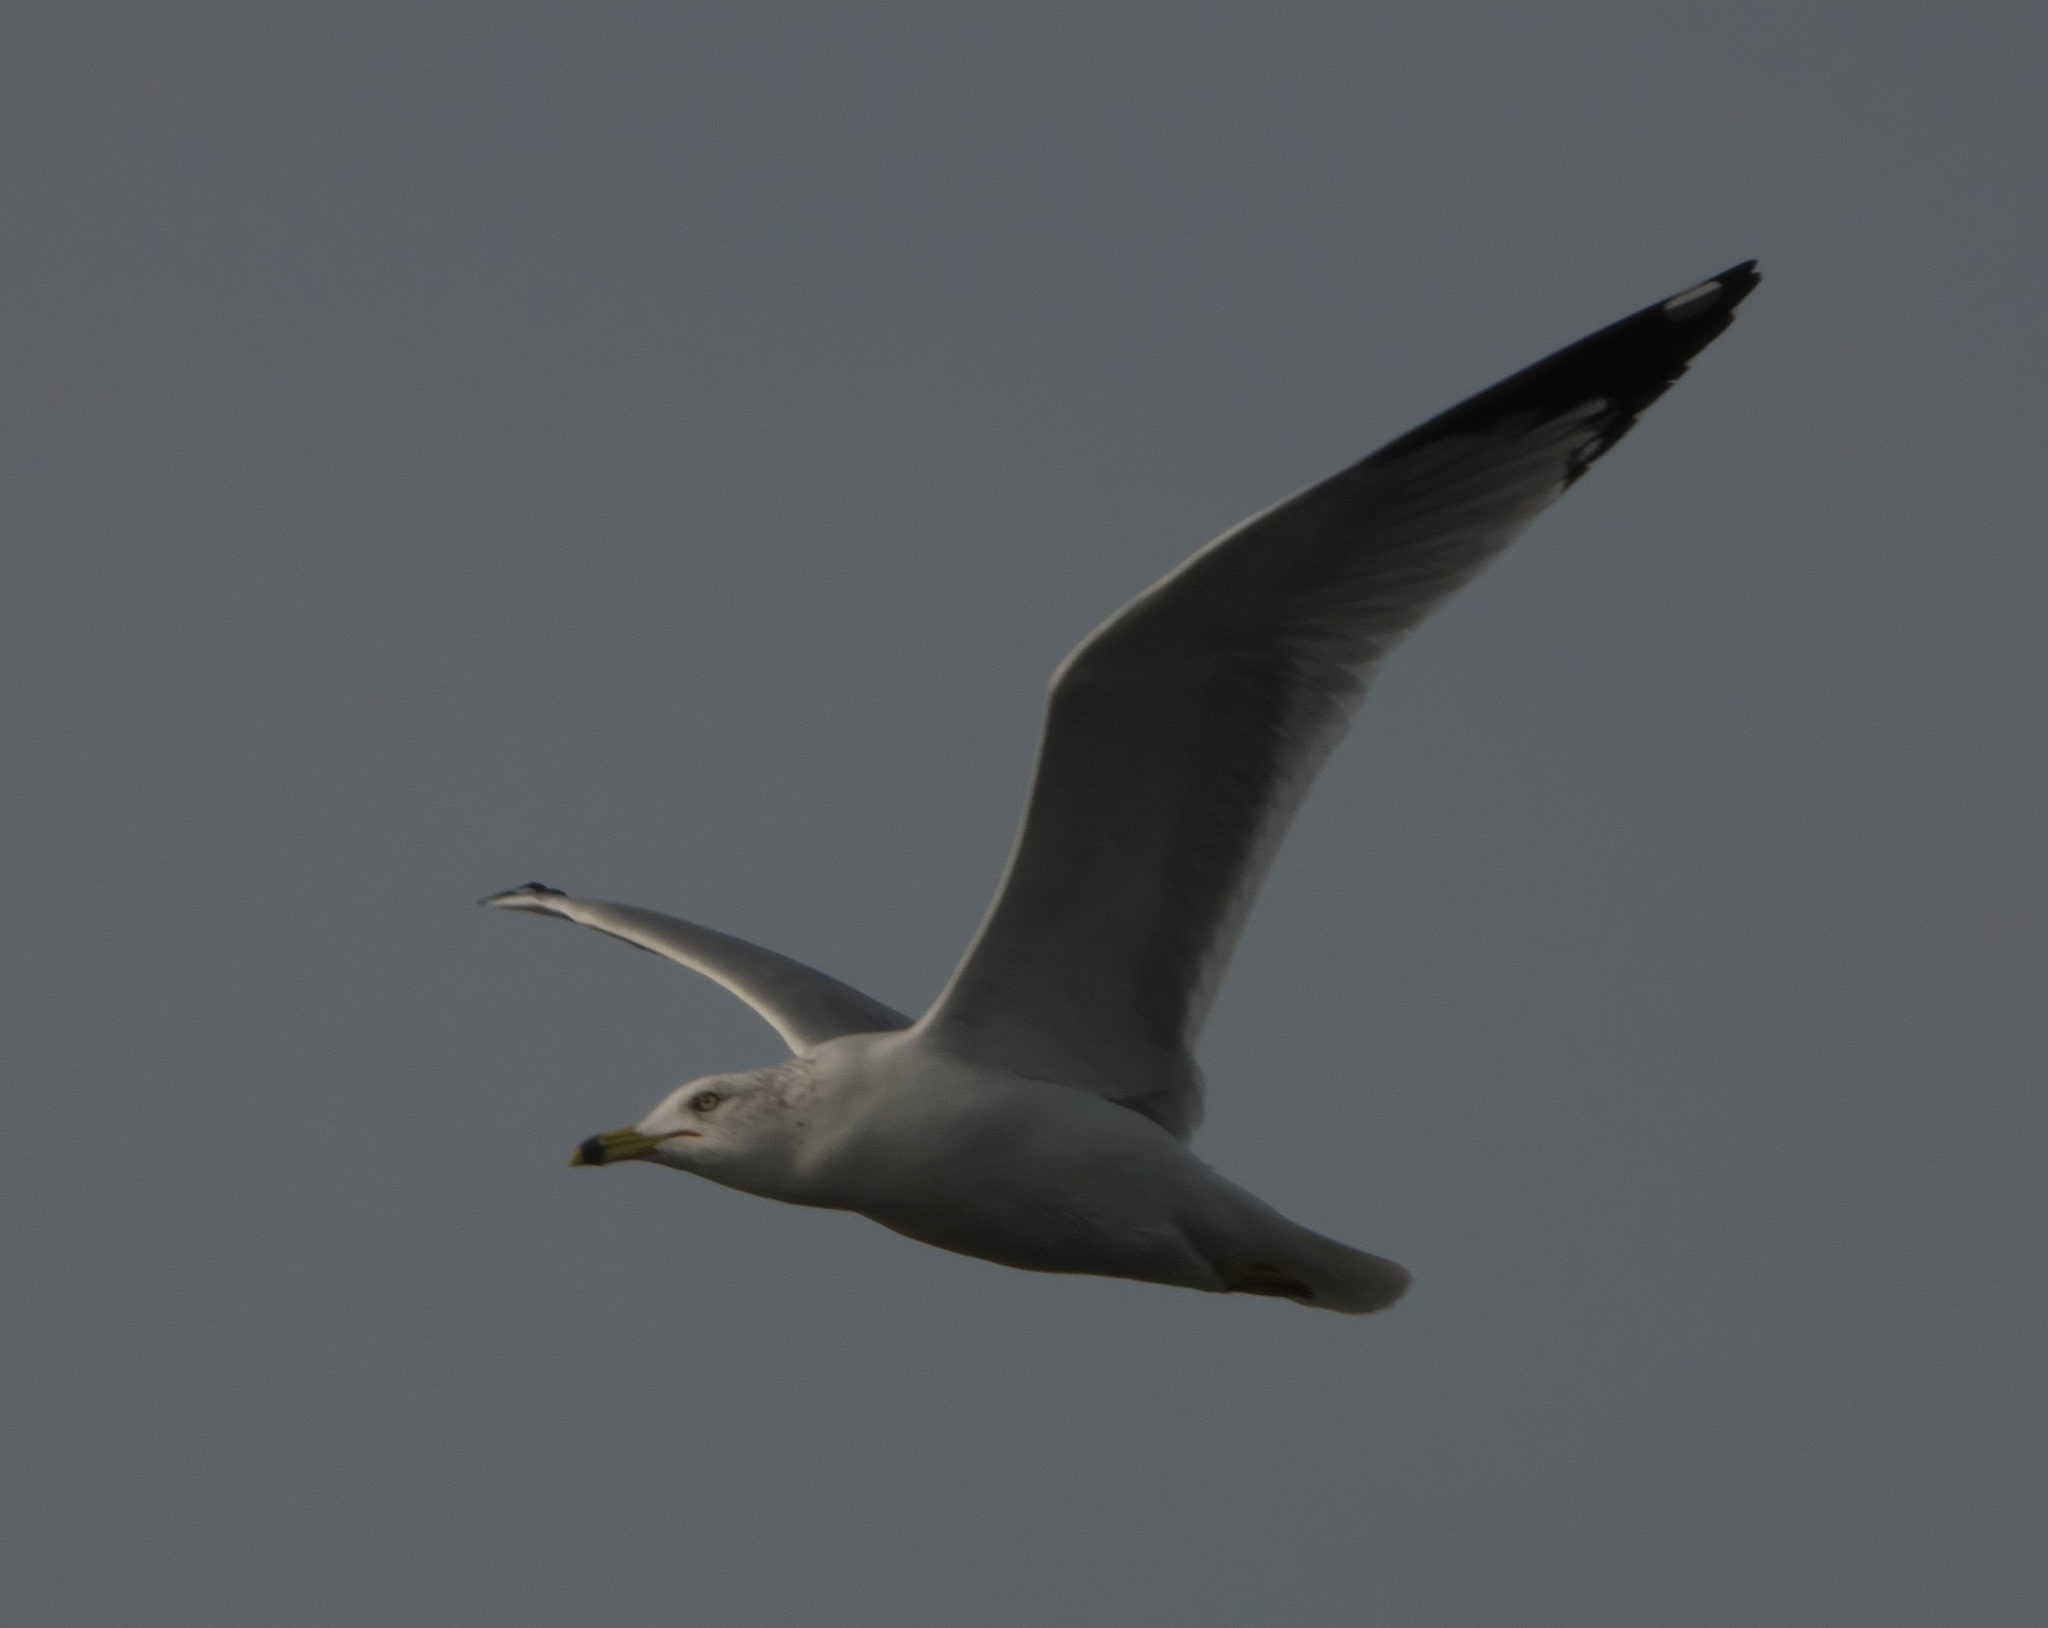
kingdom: Animalia
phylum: Chordata
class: Aves
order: Charadriiformes
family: Laridae
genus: Larus
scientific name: Larus delawarensis
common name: Ring-billed gull
